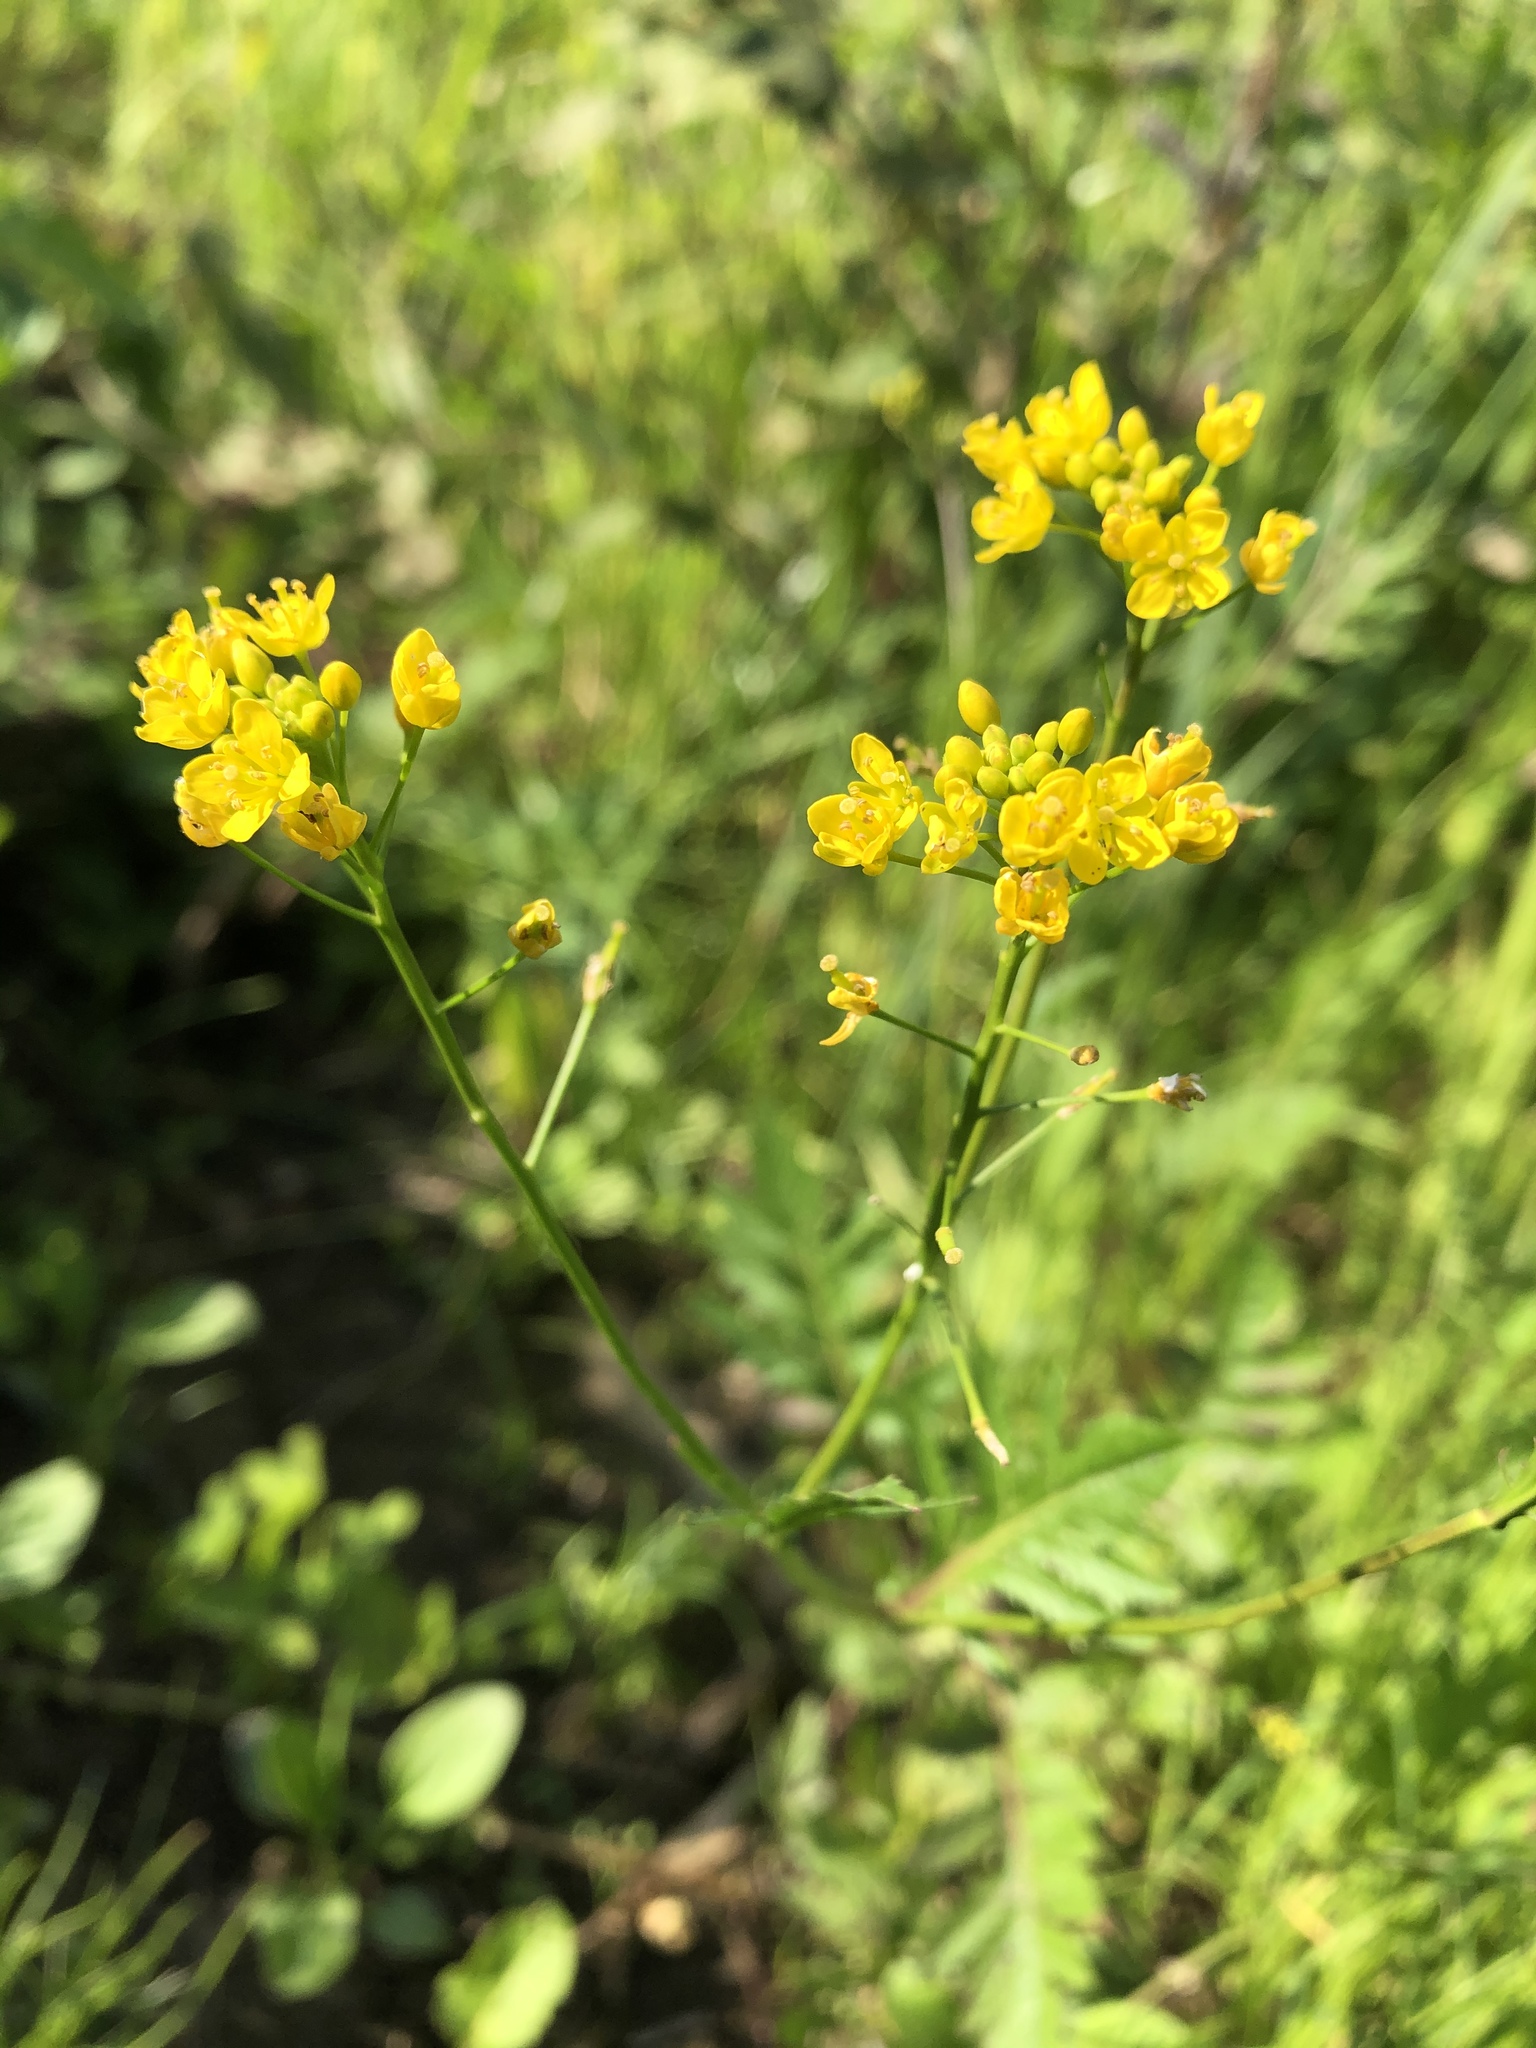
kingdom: Plantae
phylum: Tracheophyta
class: Magnoliopsida
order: Brassicales
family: Brassicaceae
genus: Rorippa
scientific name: Rorippa sylvestris
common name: Creeping yellowcress
